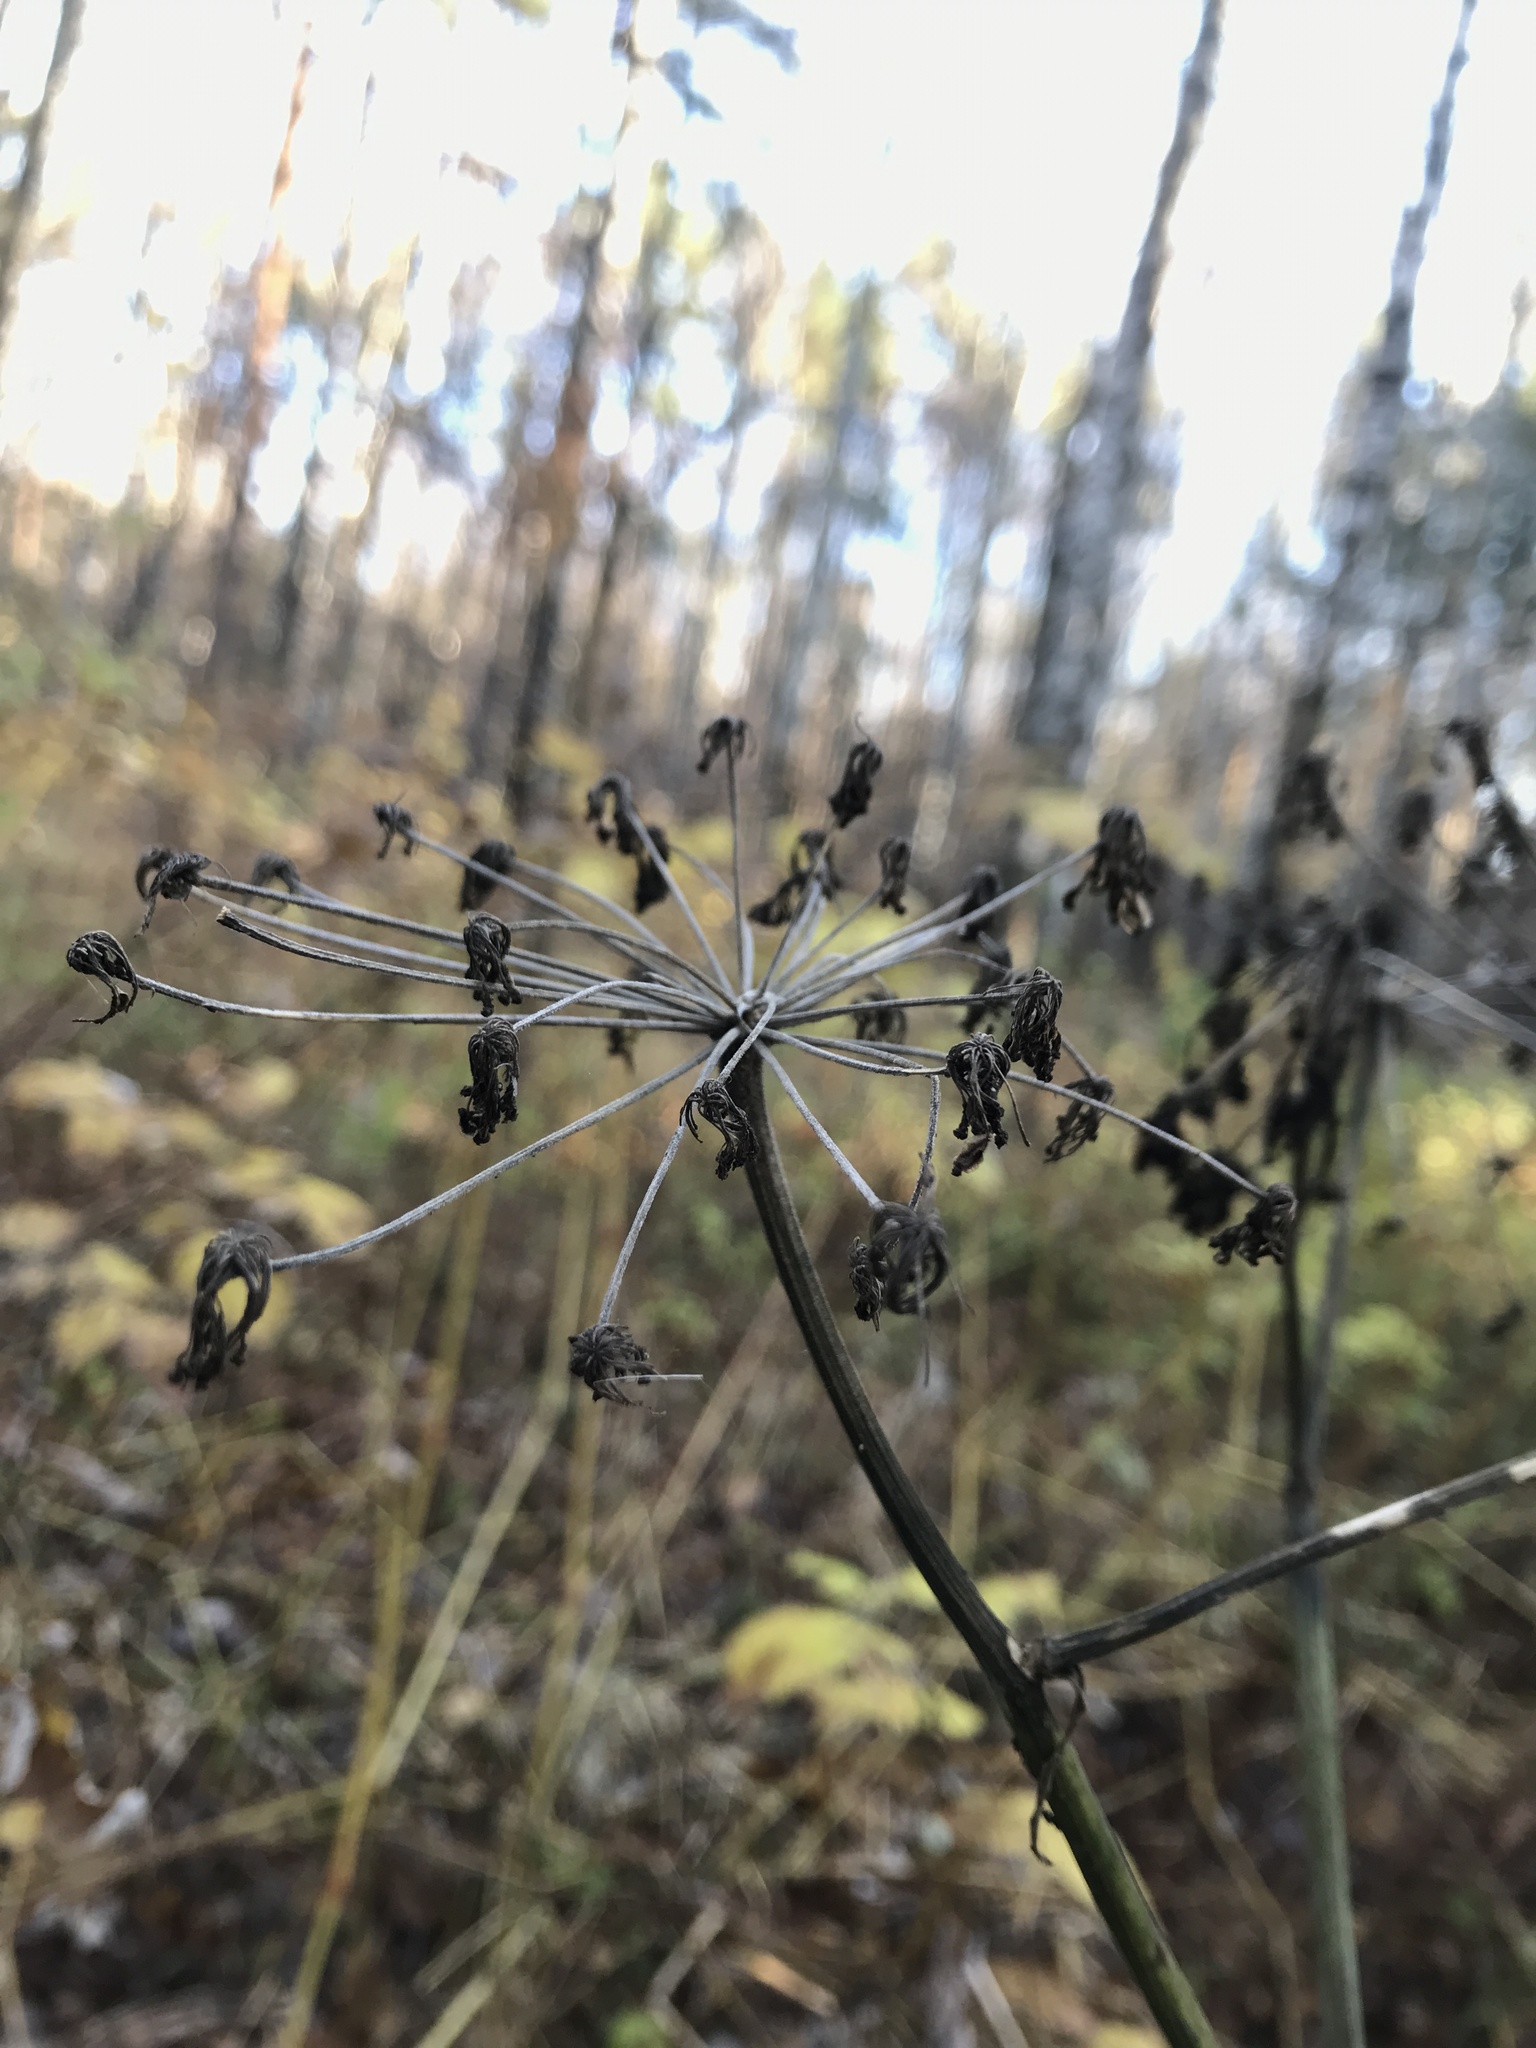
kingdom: Plantae
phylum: Tracheophyta
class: Magnoliopsida
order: Apiales
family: Apiaceae
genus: Angelica
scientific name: Angelica sylvestris
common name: Wild angelica
